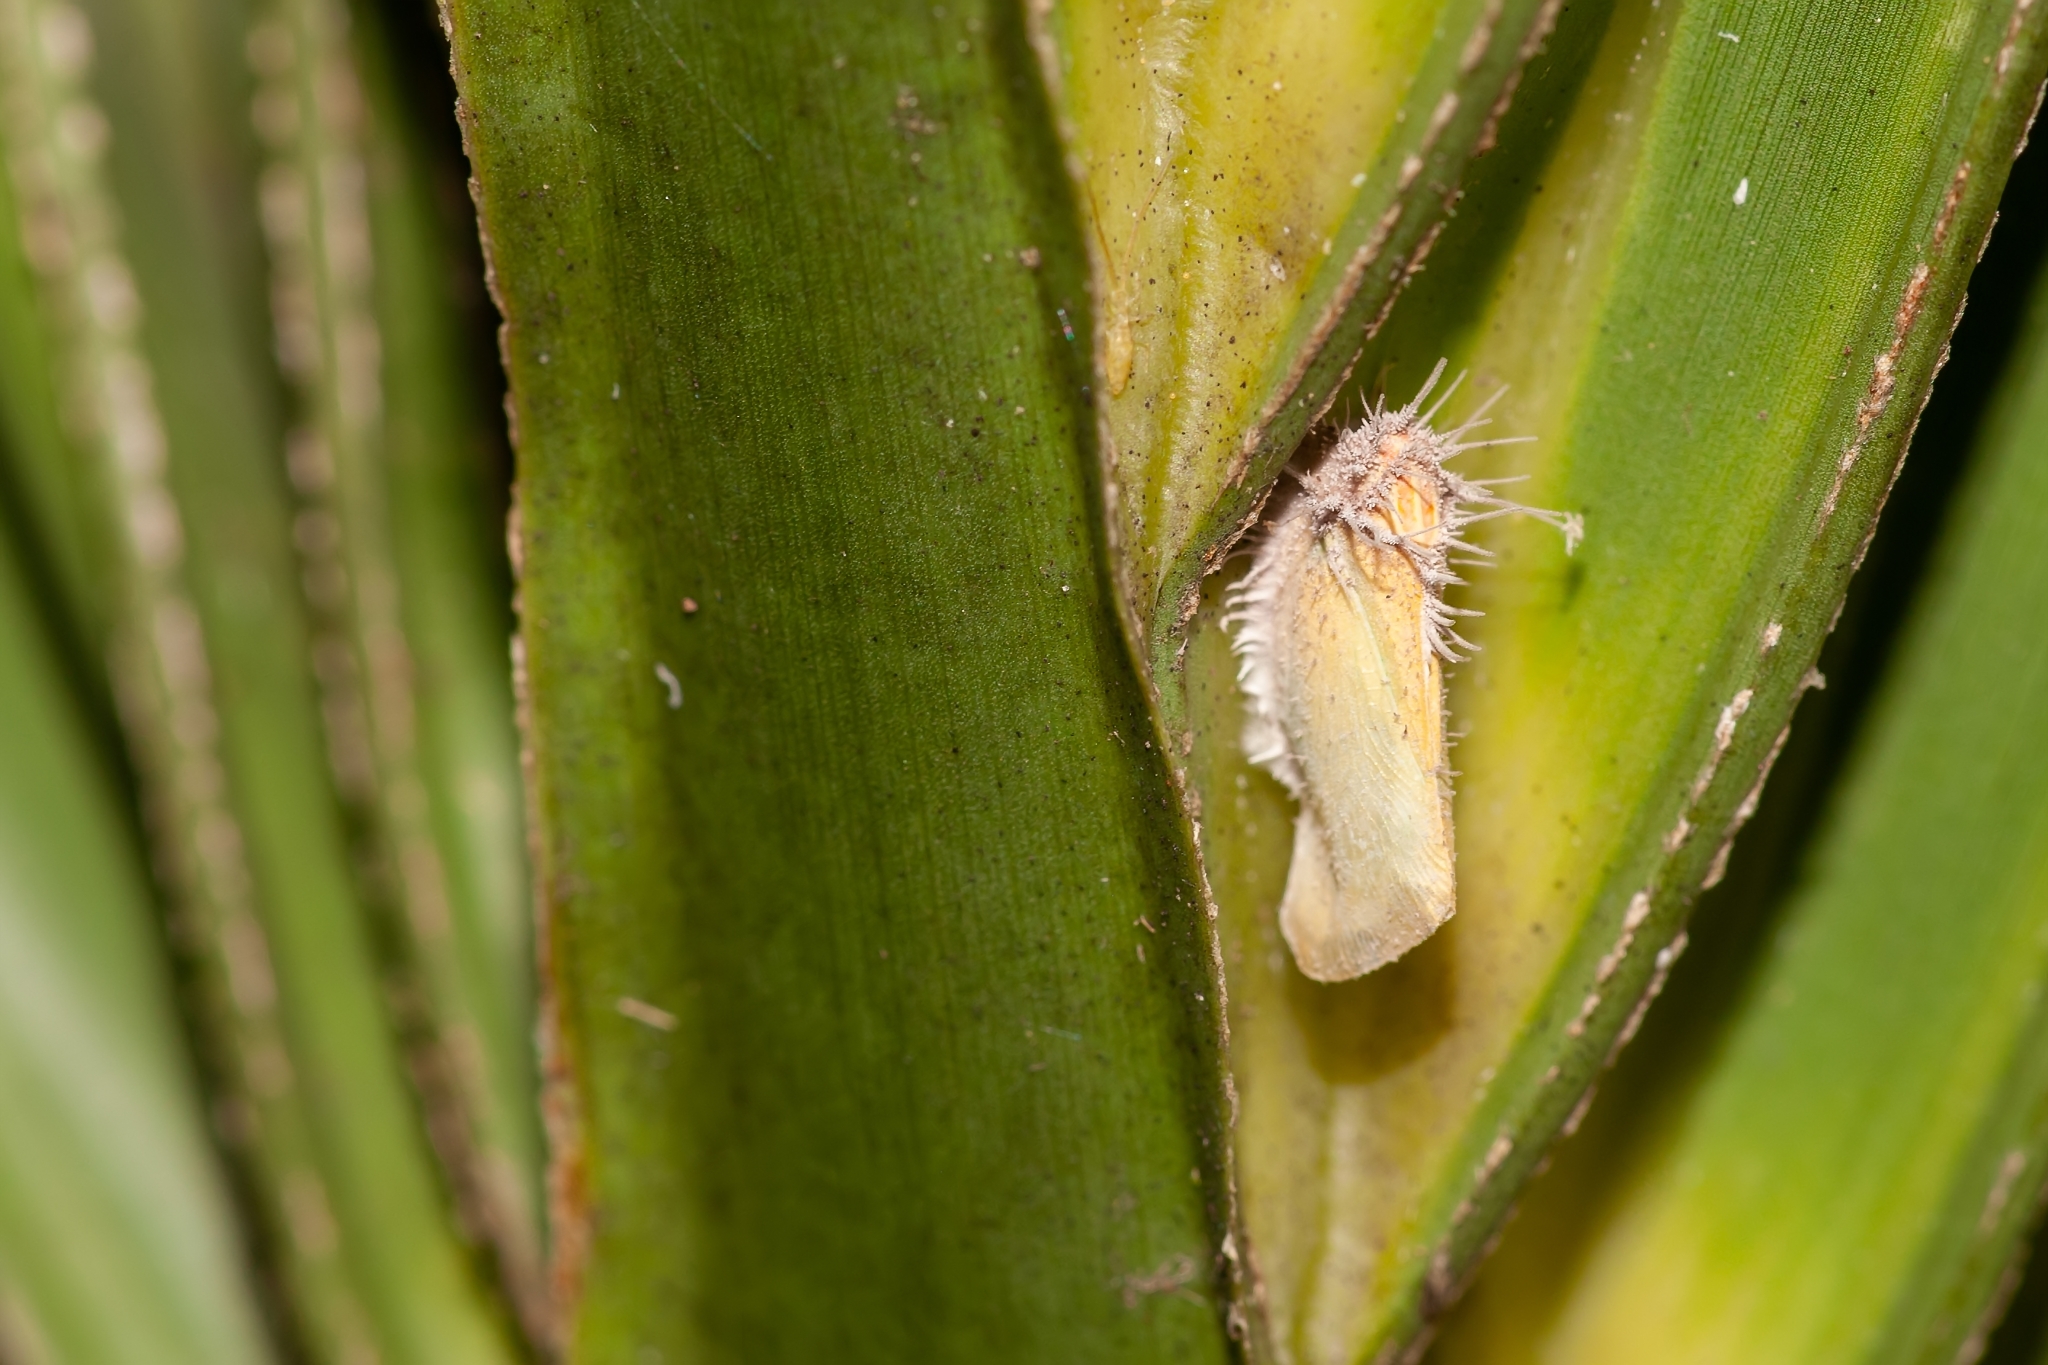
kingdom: Animalia
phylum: Arthropoda
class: Insecta
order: Hemiptera
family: Flatidae
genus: Ormenaria
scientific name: Ormenaria rufifascia
